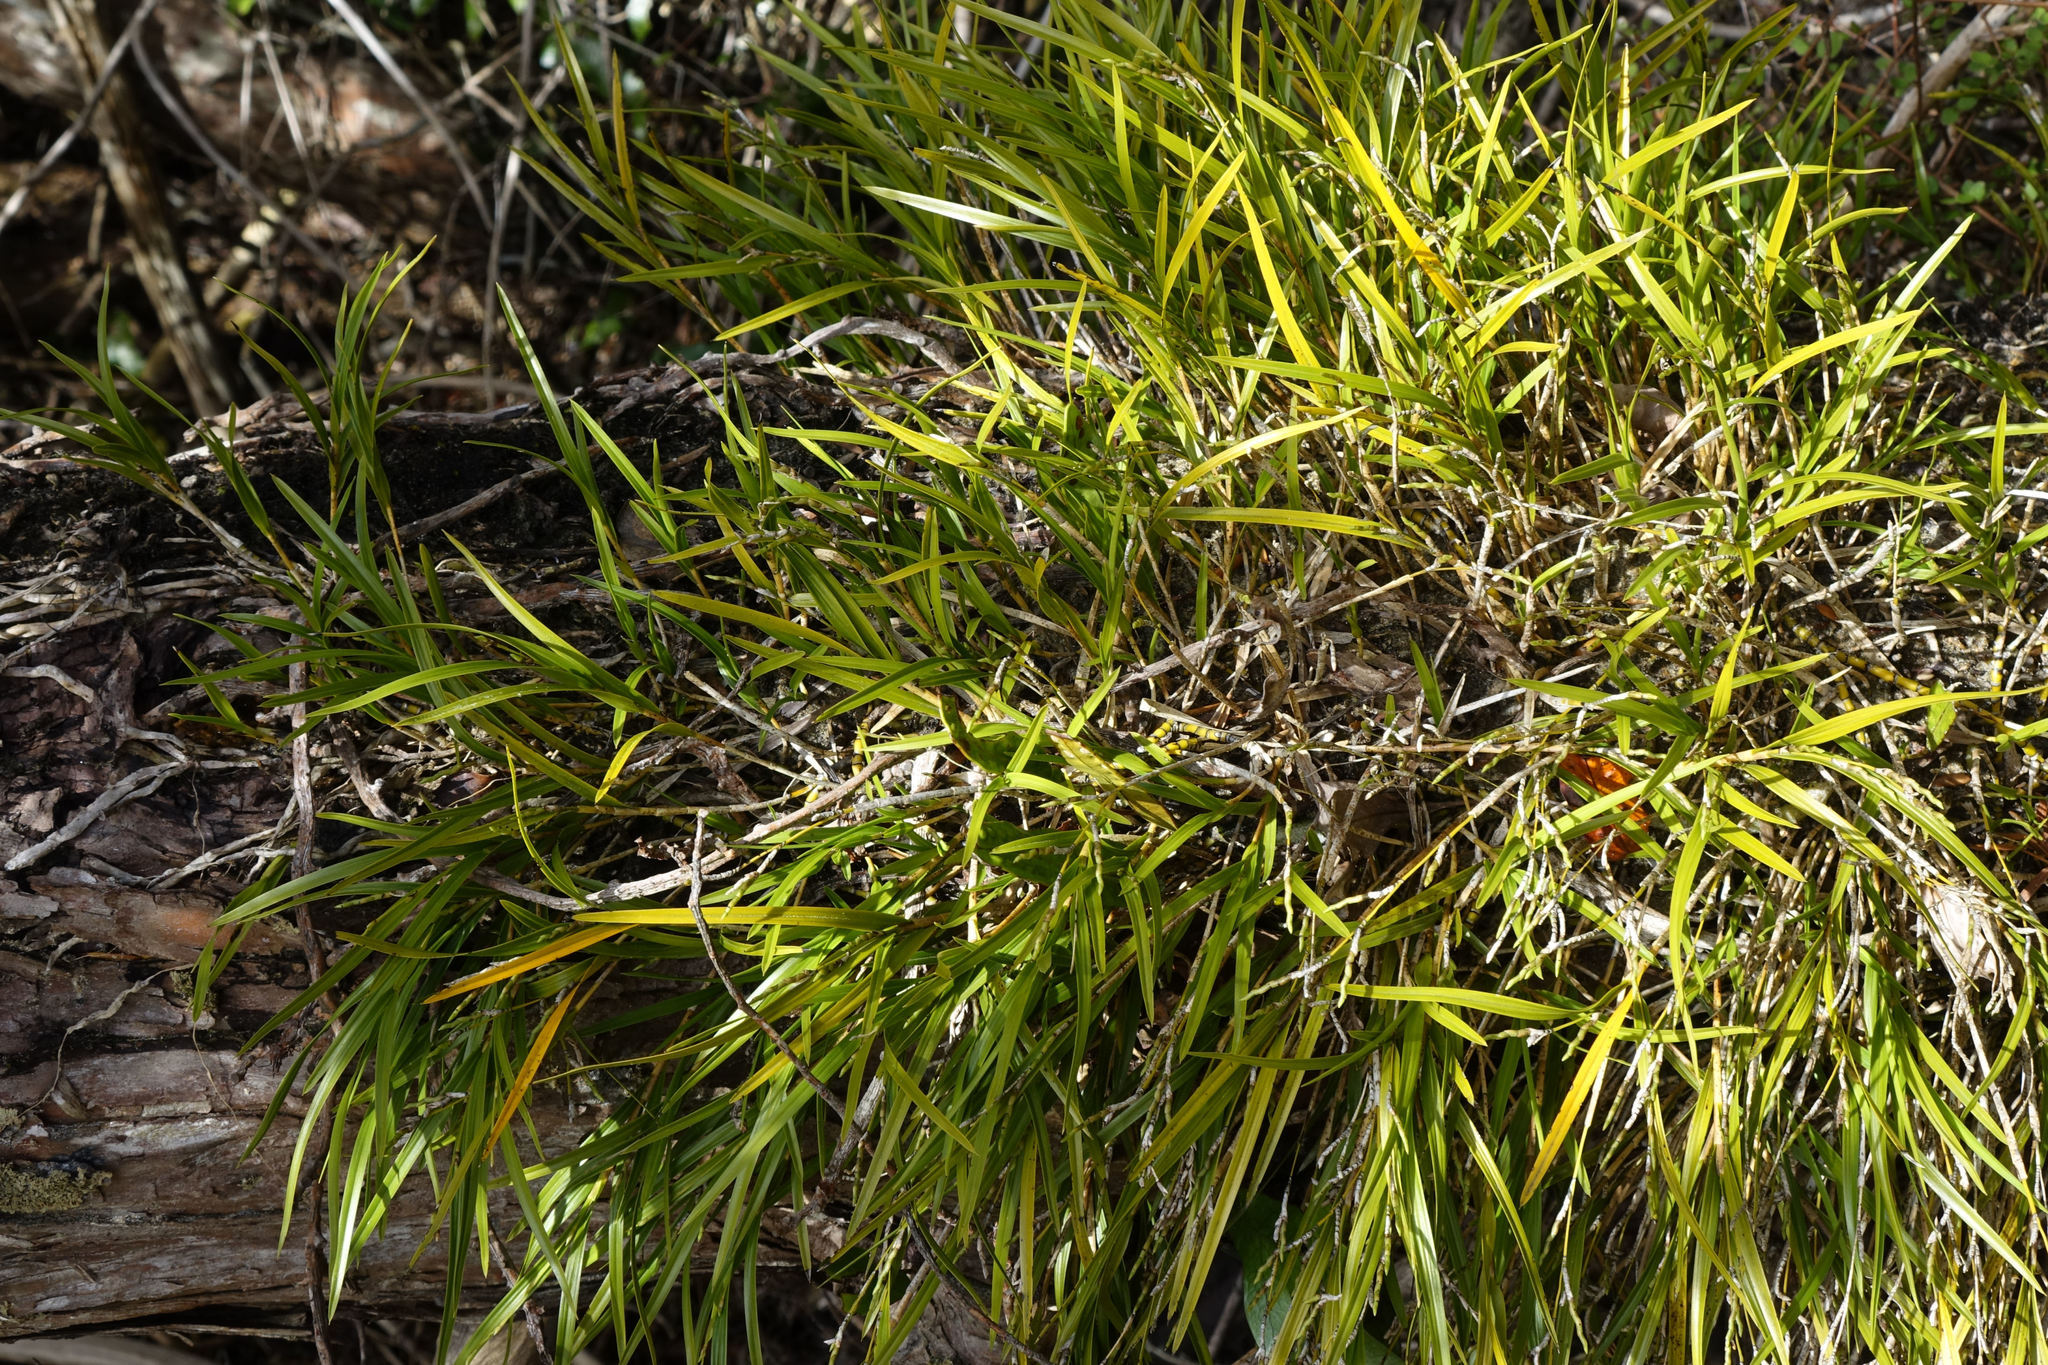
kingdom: Plantae
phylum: Tracheophyta
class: Liliopsida
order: Asparagales
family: Orchidaceae
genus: Earina
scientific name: Earina mucronata
